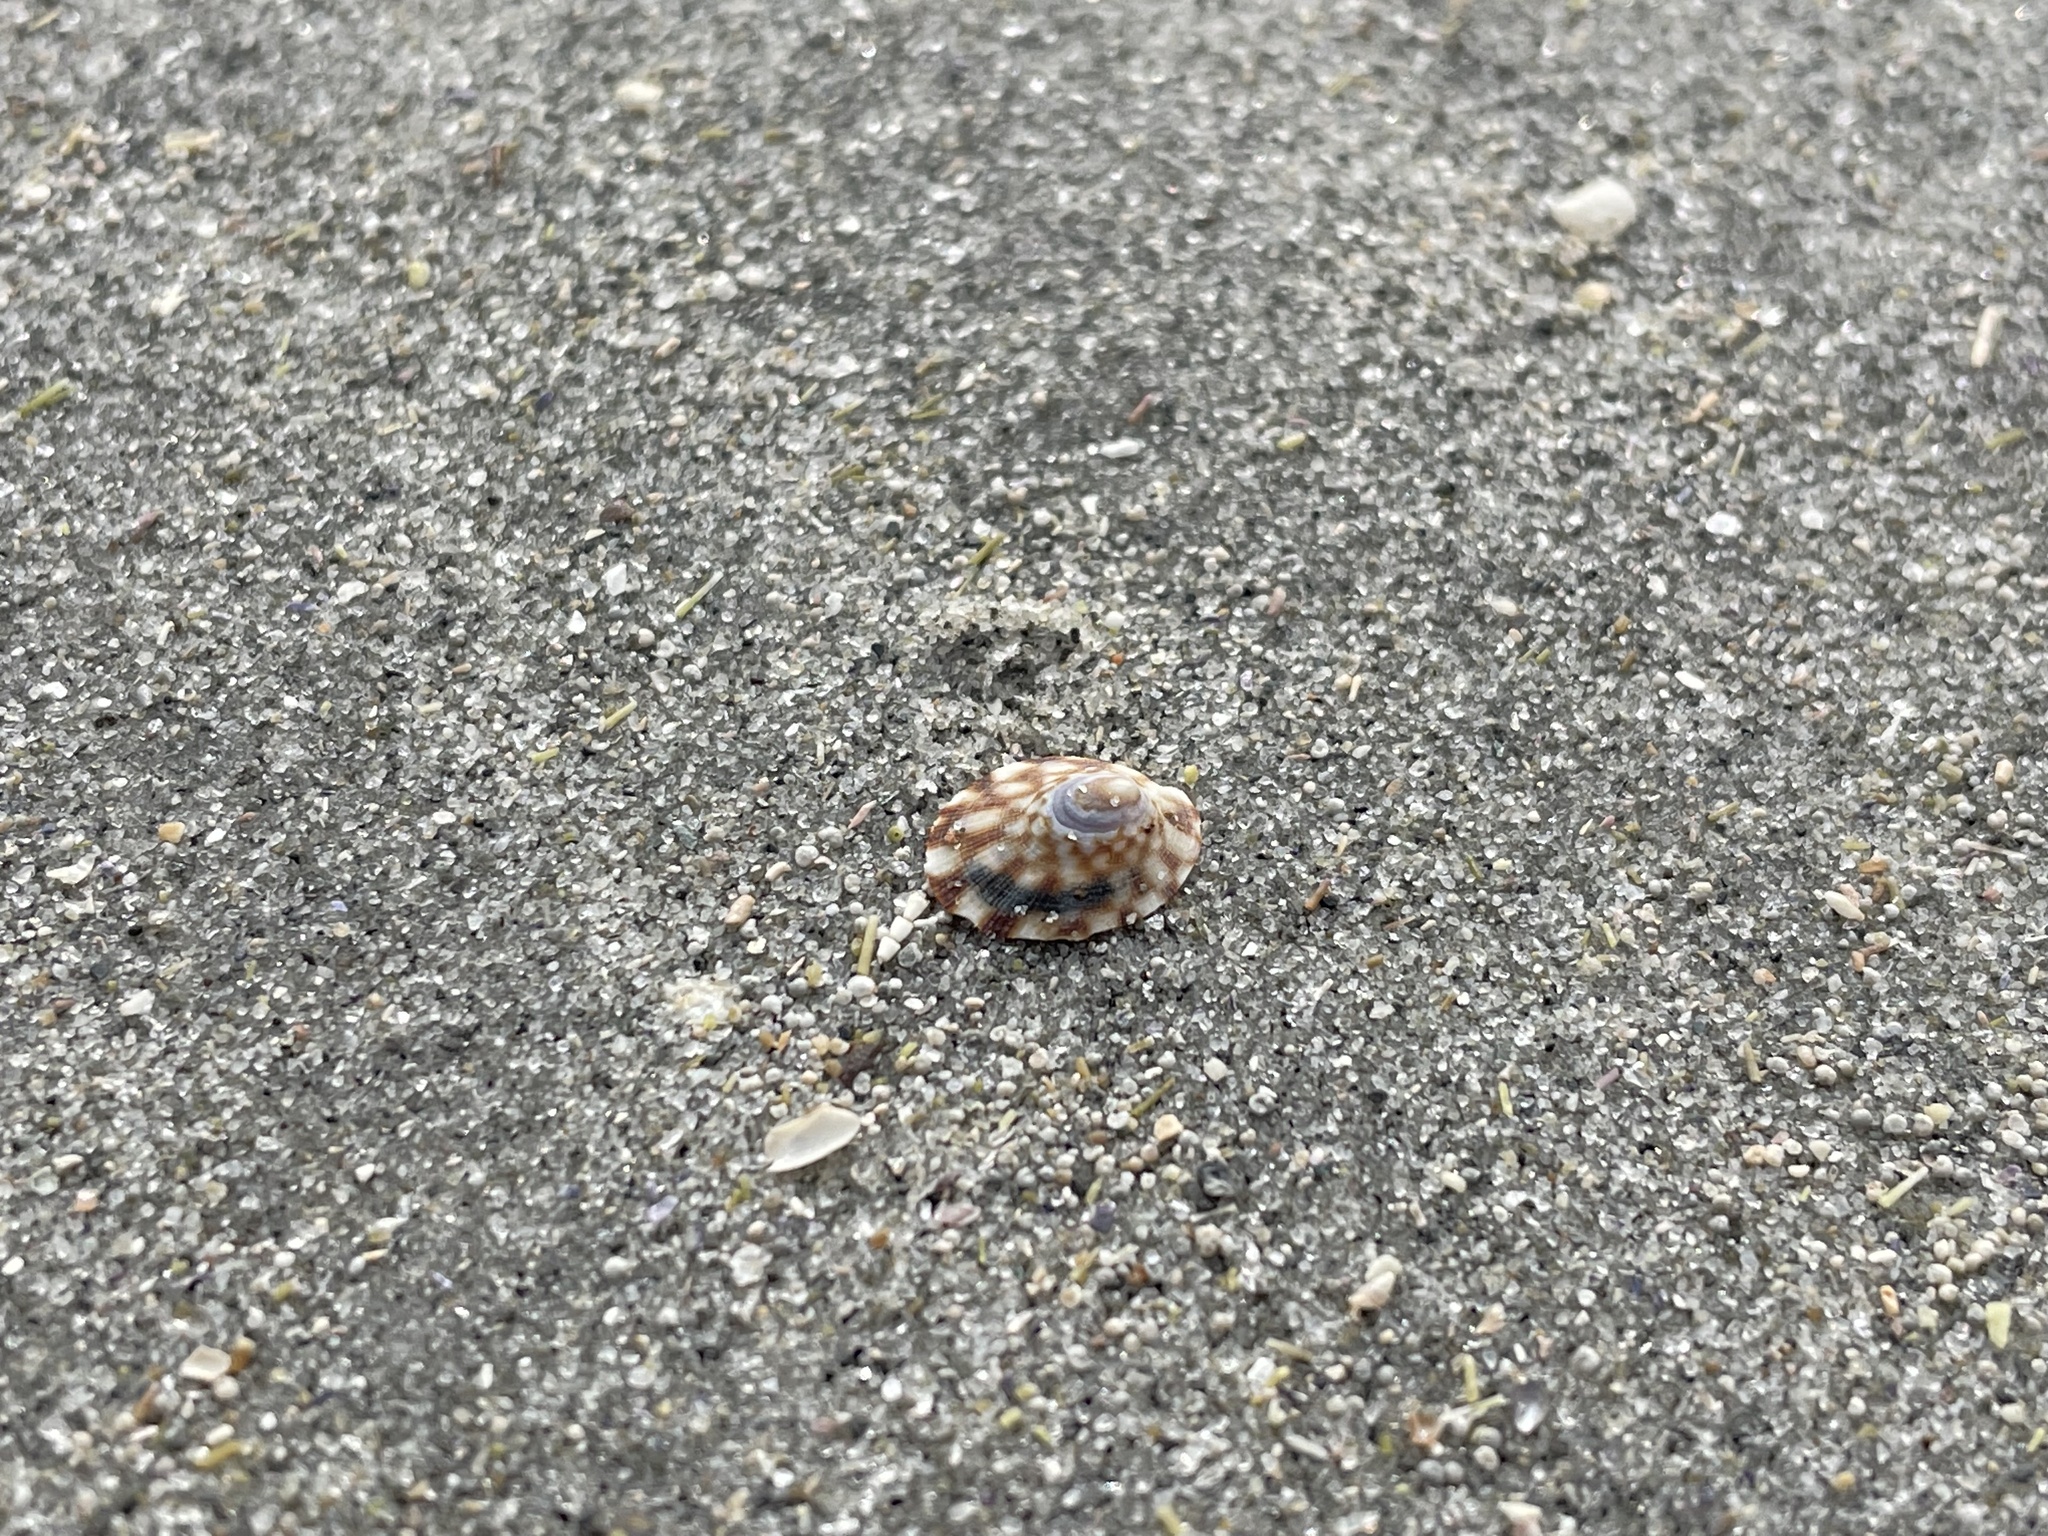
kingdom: Animalia
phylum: Mollusca
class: Gastropoda
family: Lottiidae
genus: Testudinalia
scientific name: Testudinalia testudinalis
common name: Common tortoiseshell limpet
